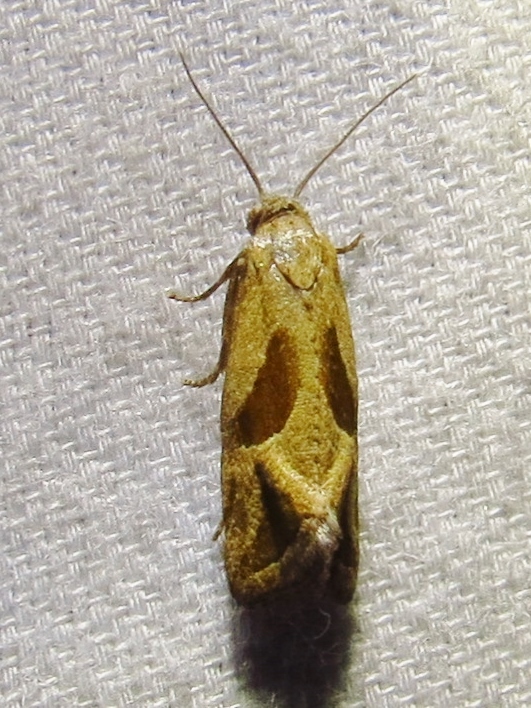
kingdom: Animalia
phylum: Arthropoda
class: Insecta
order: Lepidoptera
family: Tortricidae
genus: Eugnosta
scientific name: Eugnosta bimaculana
